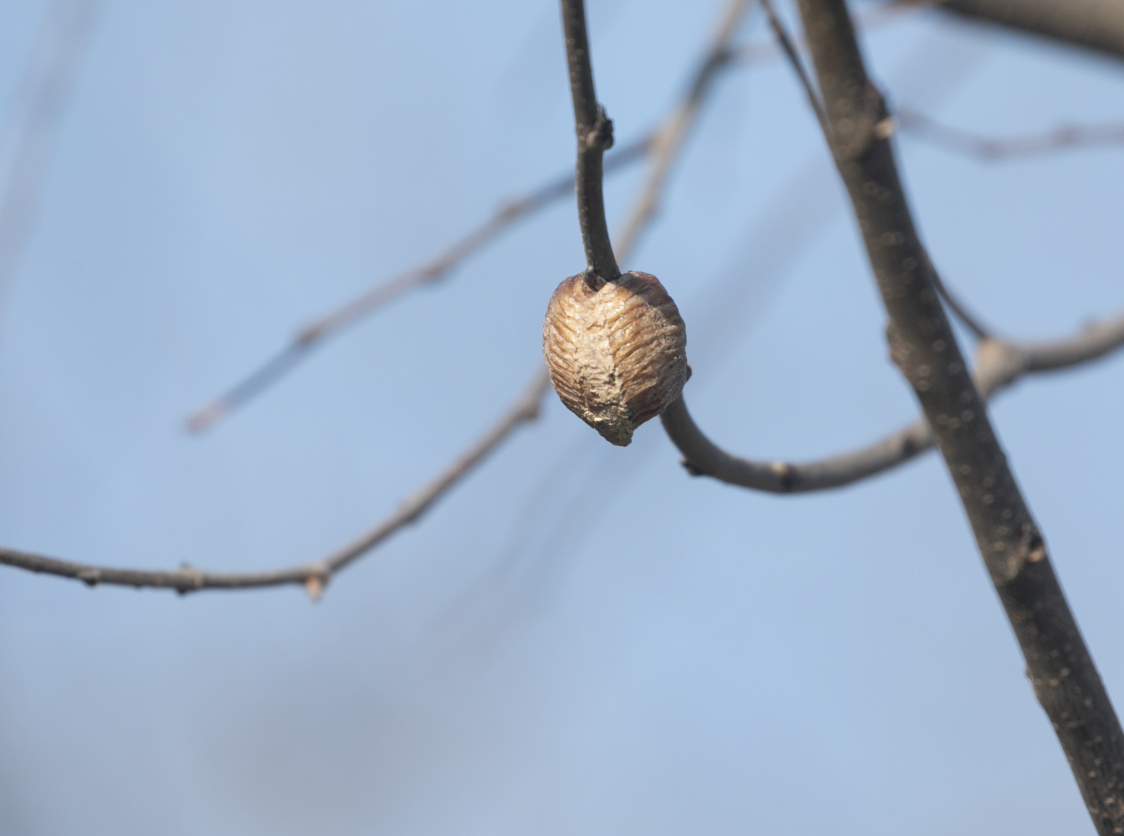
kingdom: Animalia
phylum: Arthropoda
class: Insecta
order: Mantodea
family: Mantidae
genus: Hierodula
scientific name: Hierodula transcaucasica
